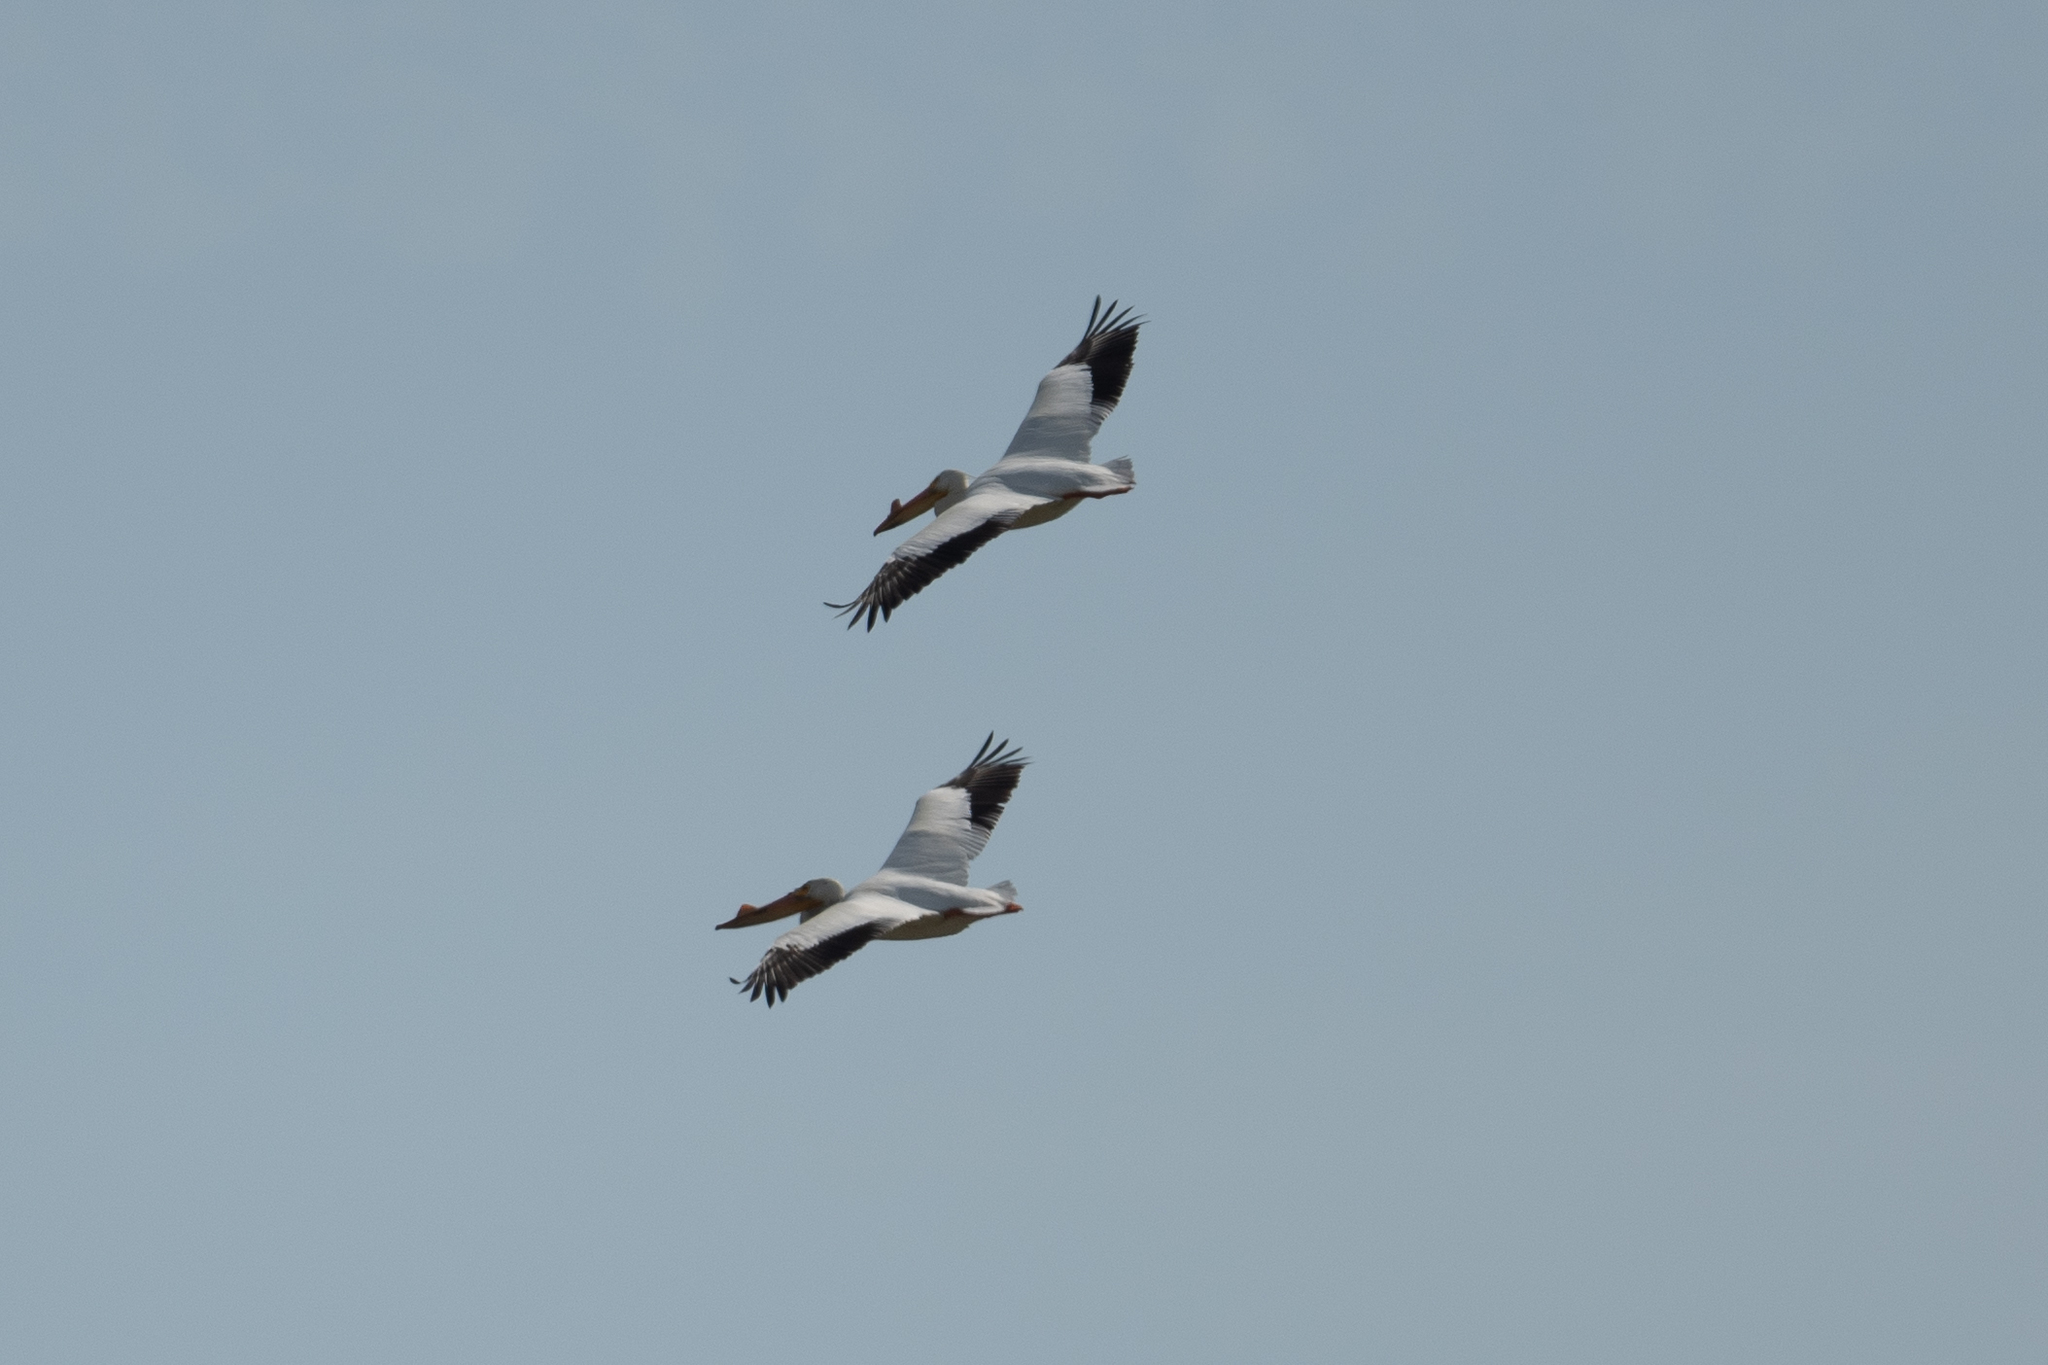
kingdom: Animalia
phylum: Chordata
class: Aves
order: Pelecaniformes
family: Pelecanidae
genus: Pelecanus
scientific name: Pelecanus erythrorhynchos
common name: American white pelican
